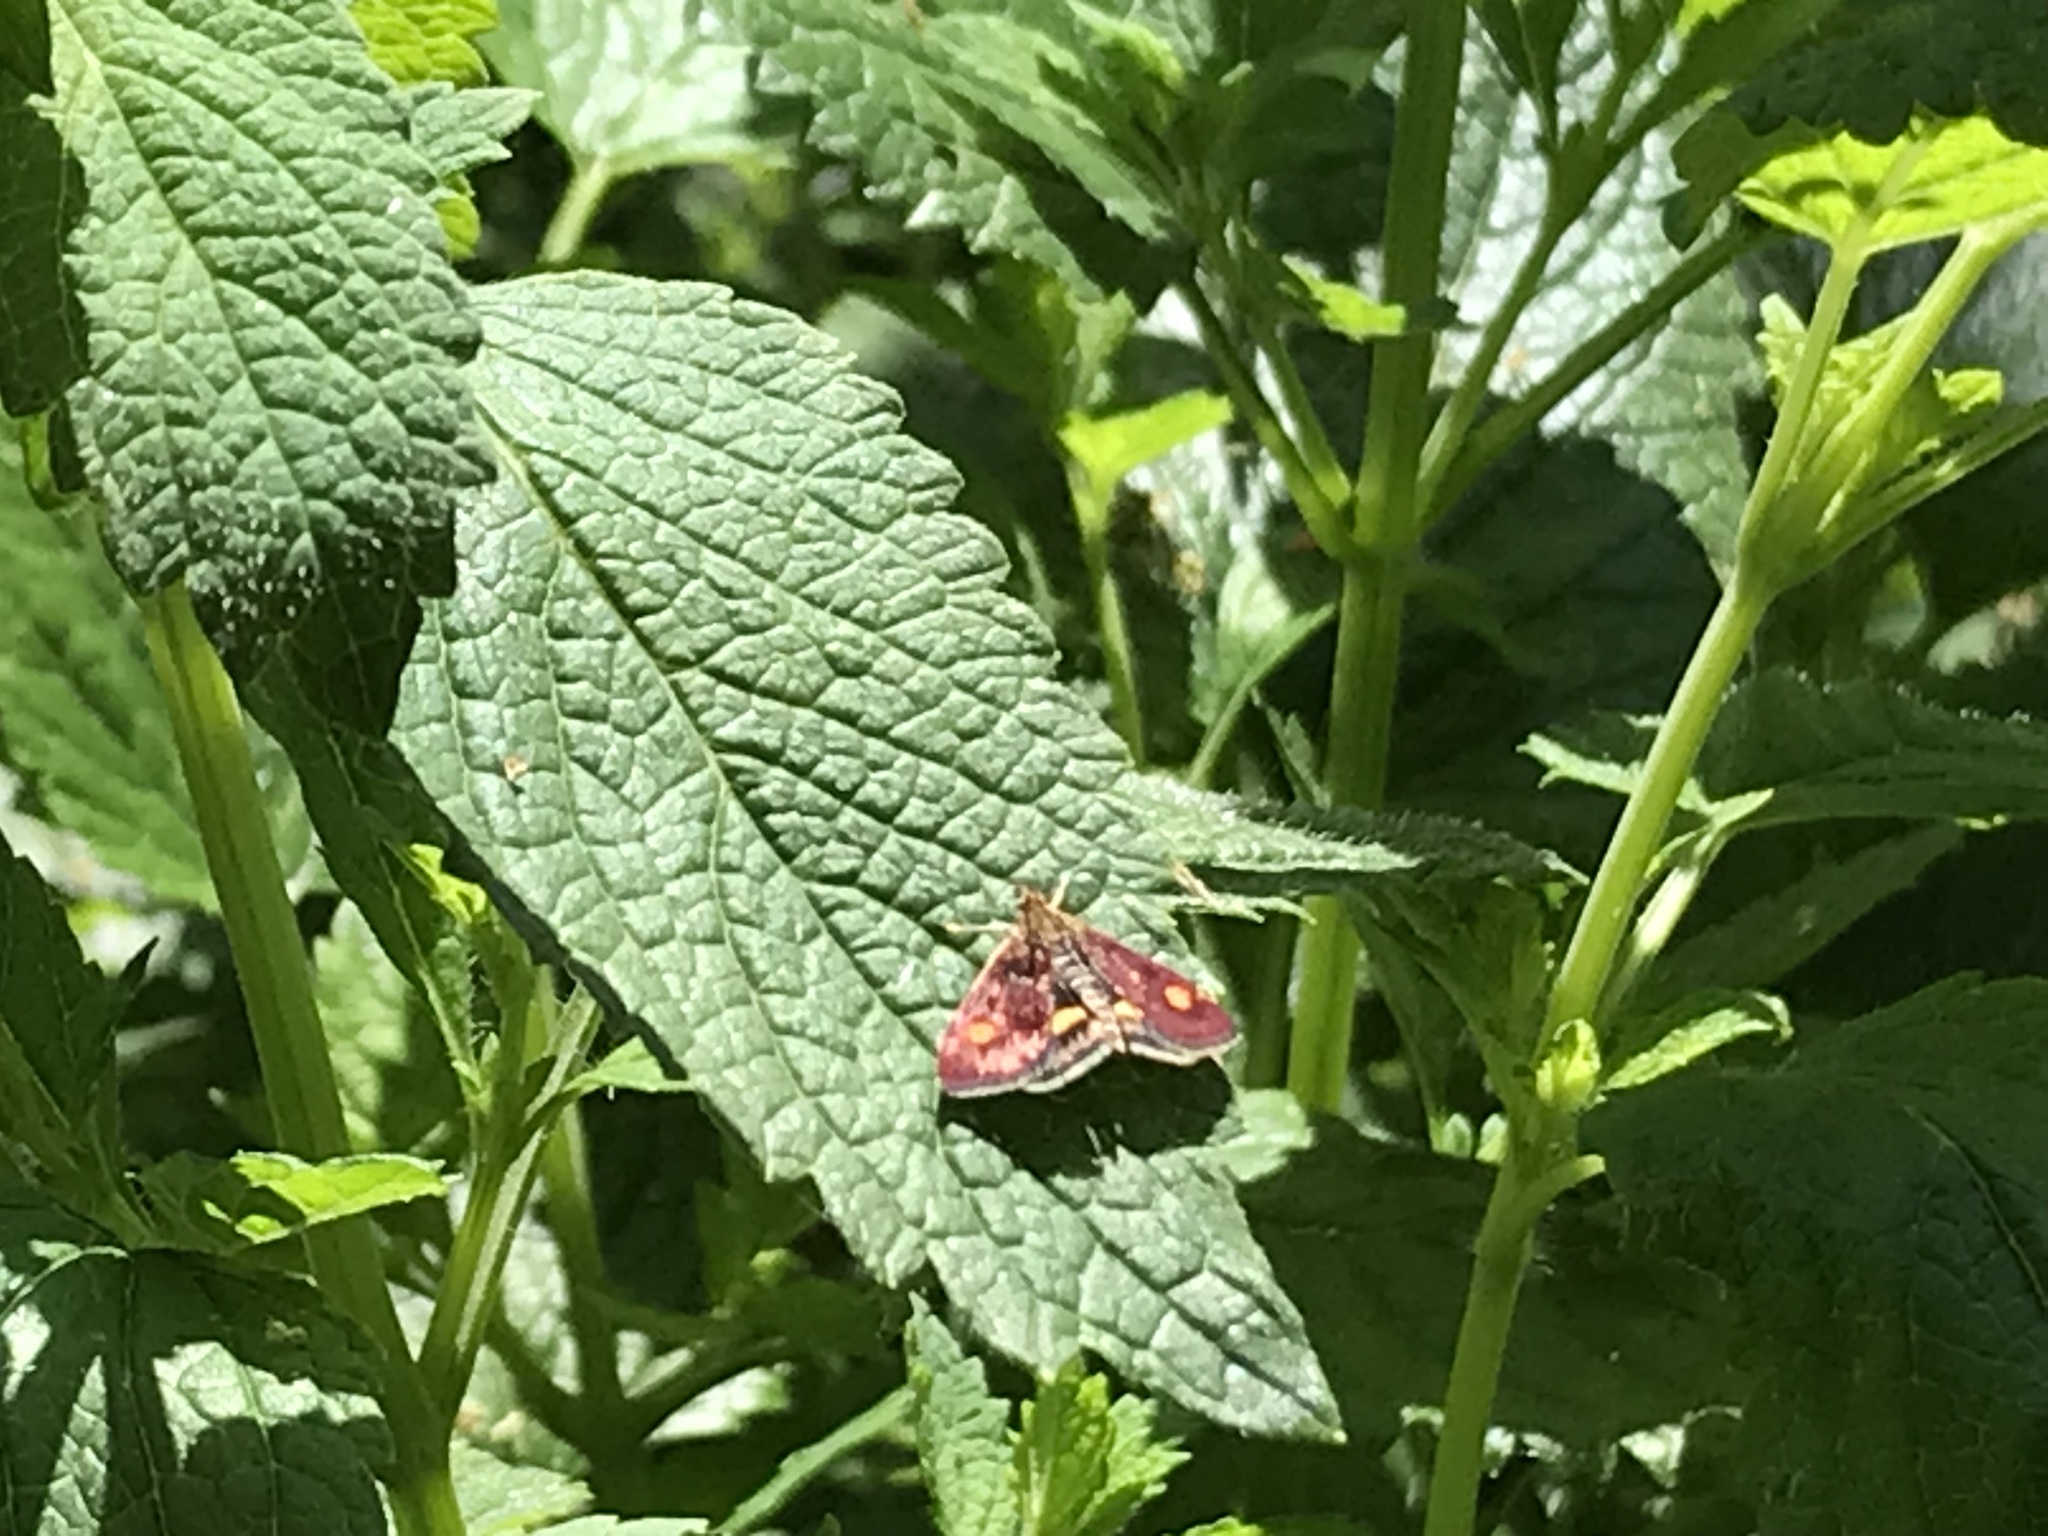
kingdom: Animalia
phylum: Arthropoda
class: Insecta
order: Lepidoptera
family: Crambidae
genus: Pyrausta
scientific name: Pyrausta aurata
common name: Small purple & gold
